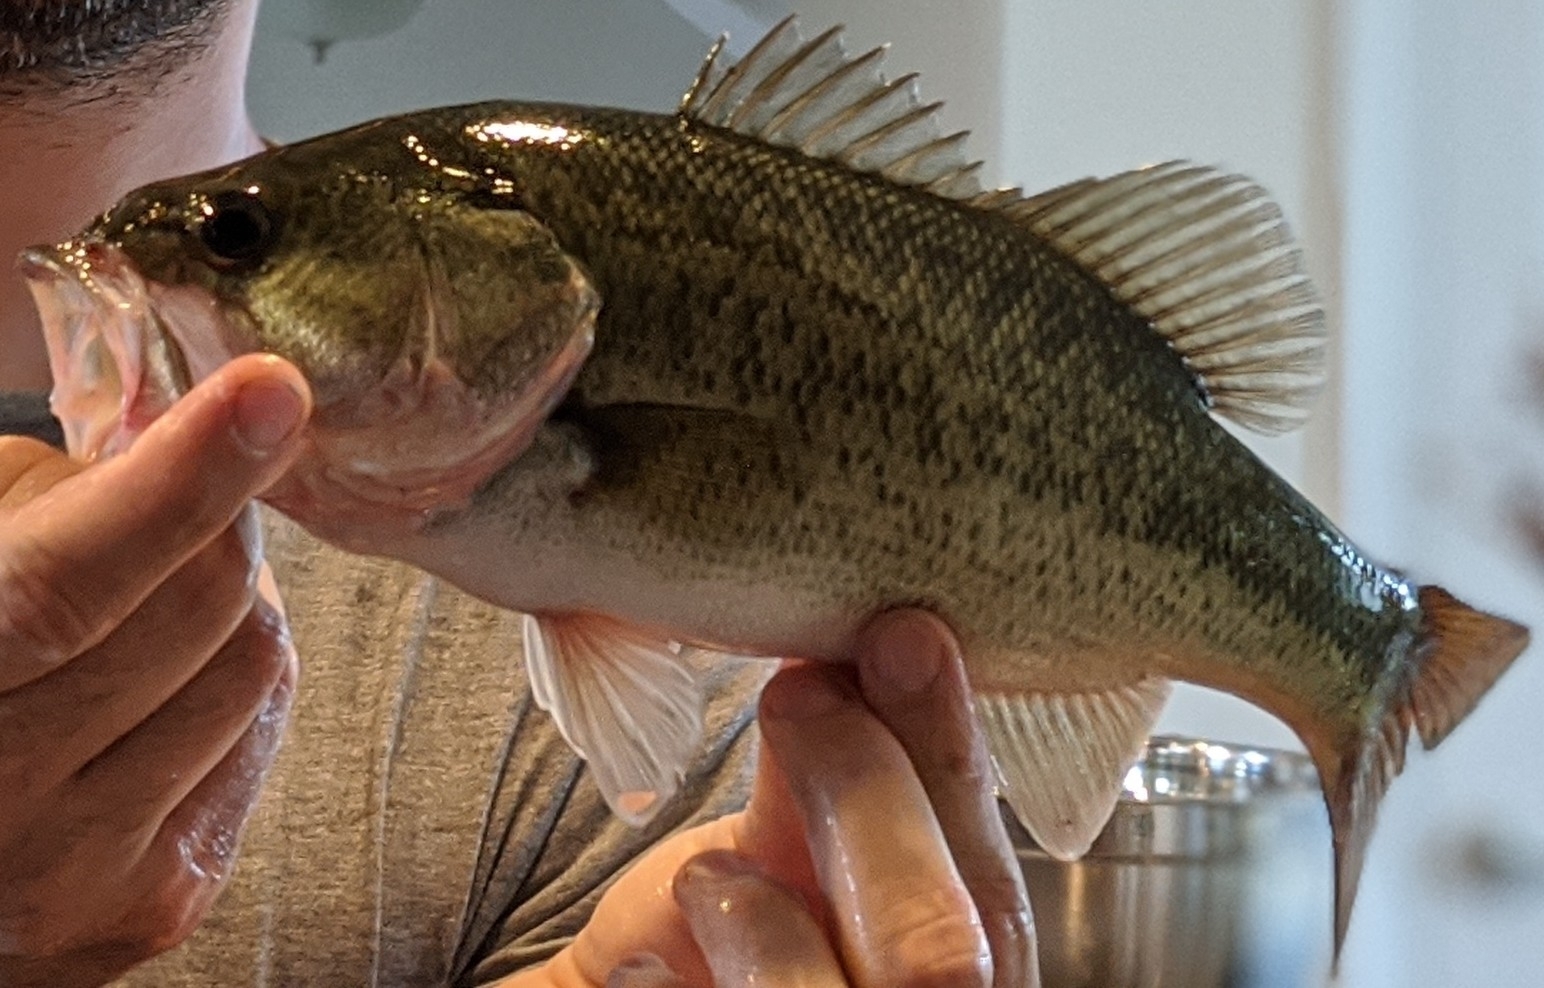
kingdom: Animalia
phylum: Chordata
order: Perciformes
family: Centrarchidae
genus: Micropterus
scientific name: Micropterus
